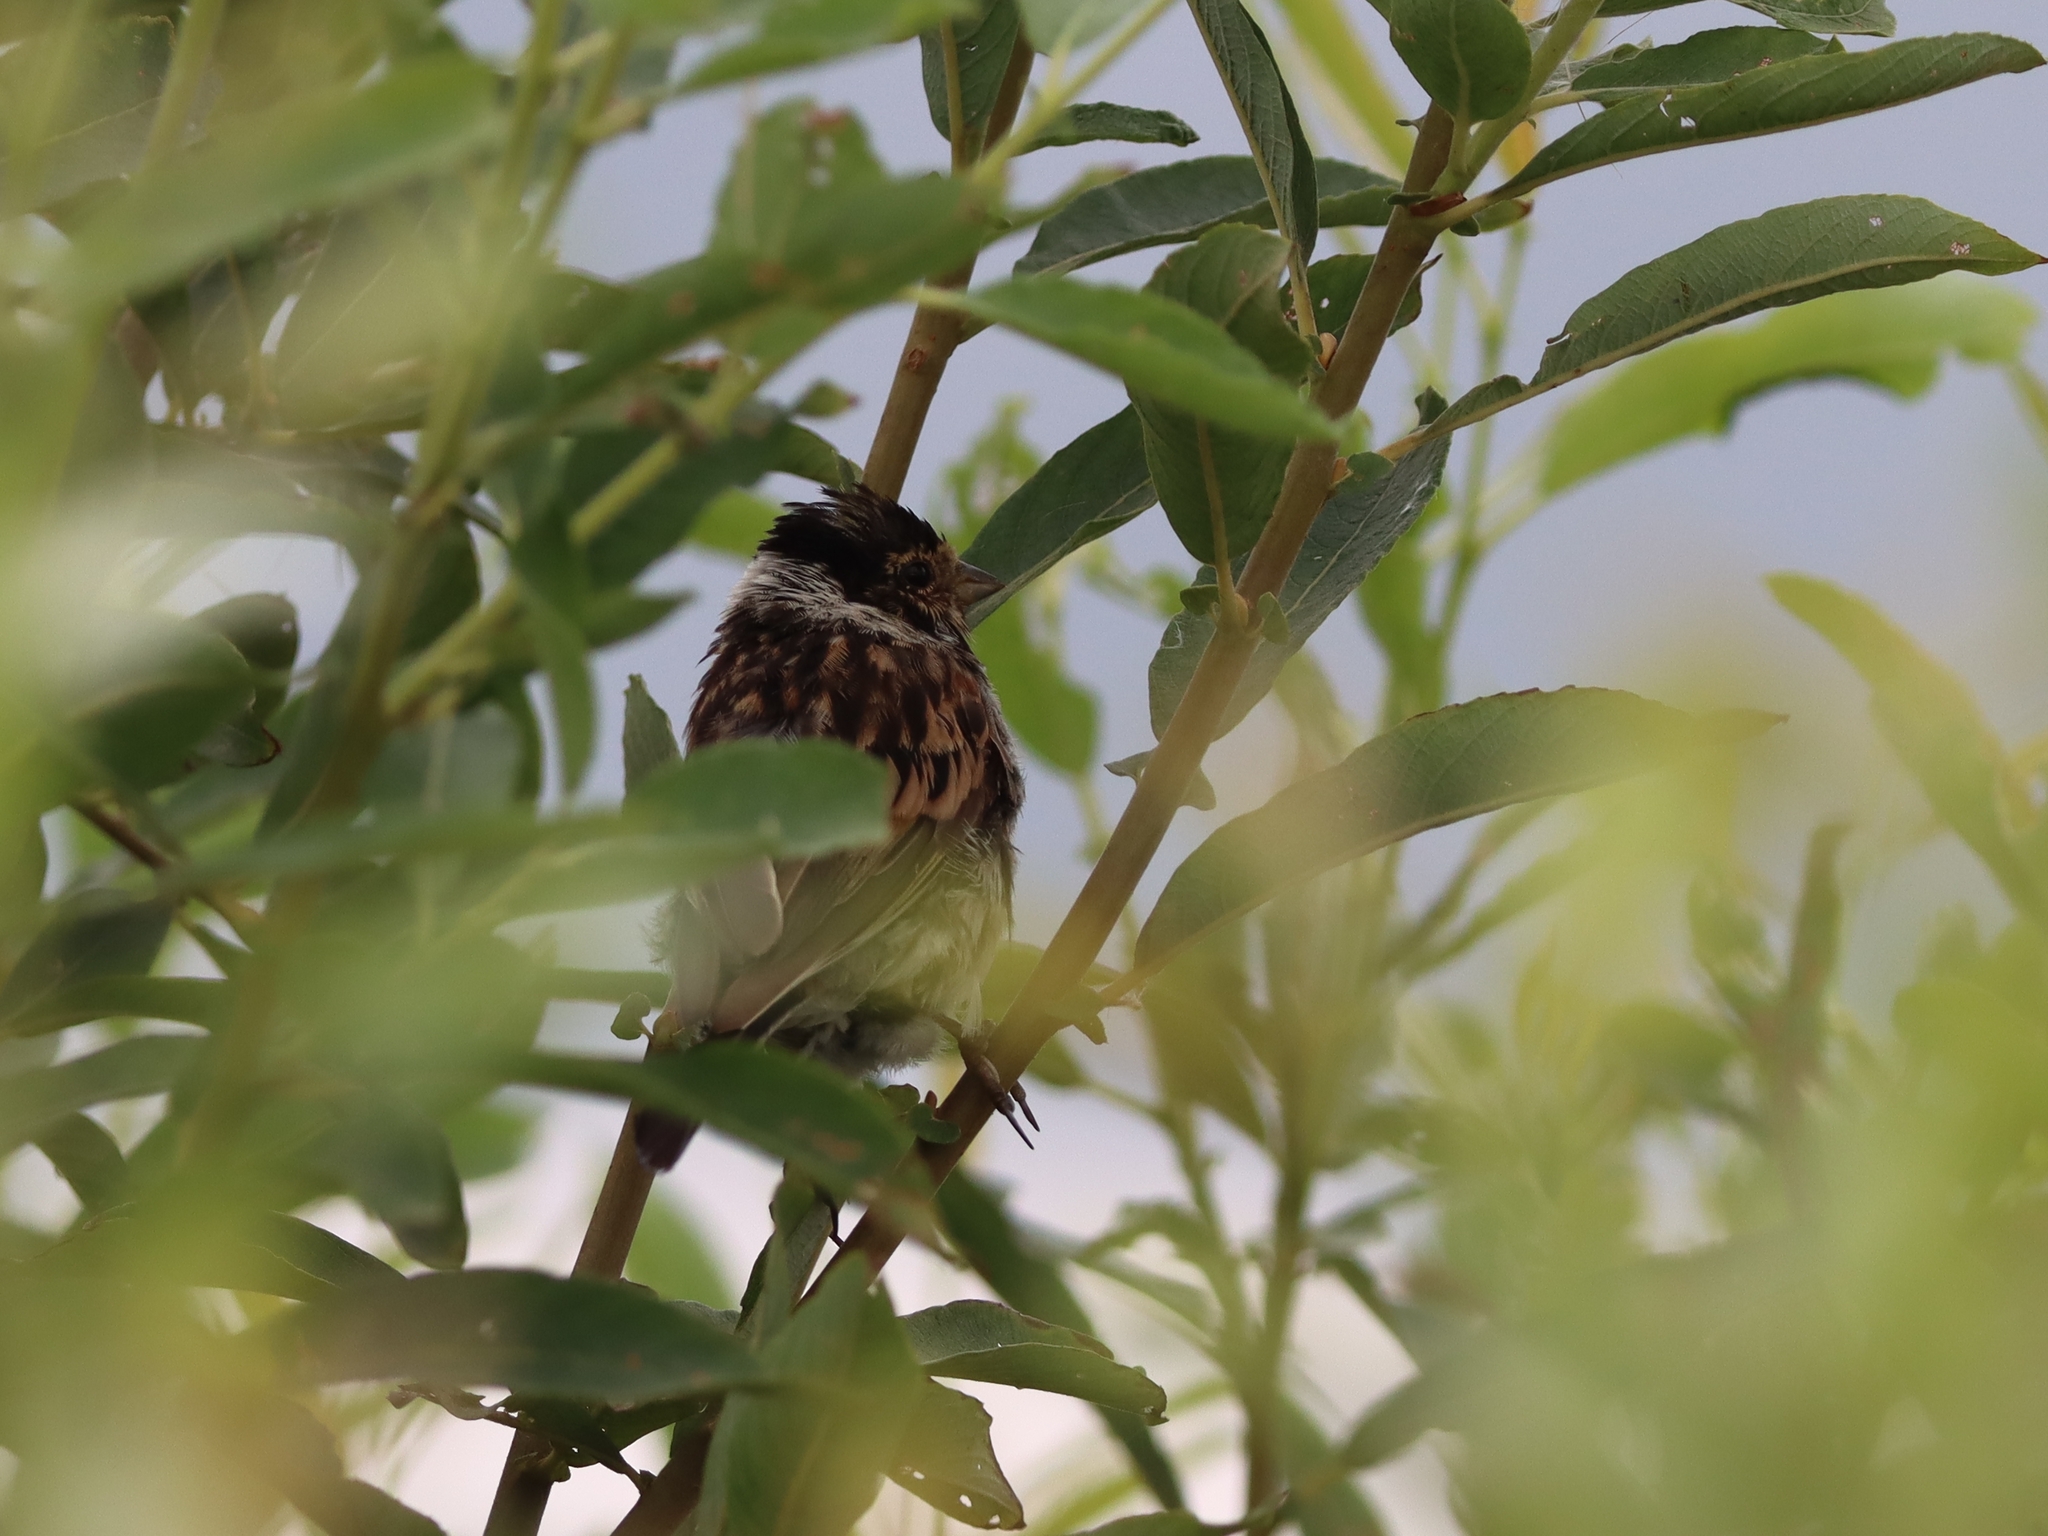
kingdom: Animalia
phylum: Chordata
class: Aves
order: Passeriformes
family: Emberizidae
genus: Emberiza
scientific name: Emberiza schoeniclus
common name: Reed bunting
